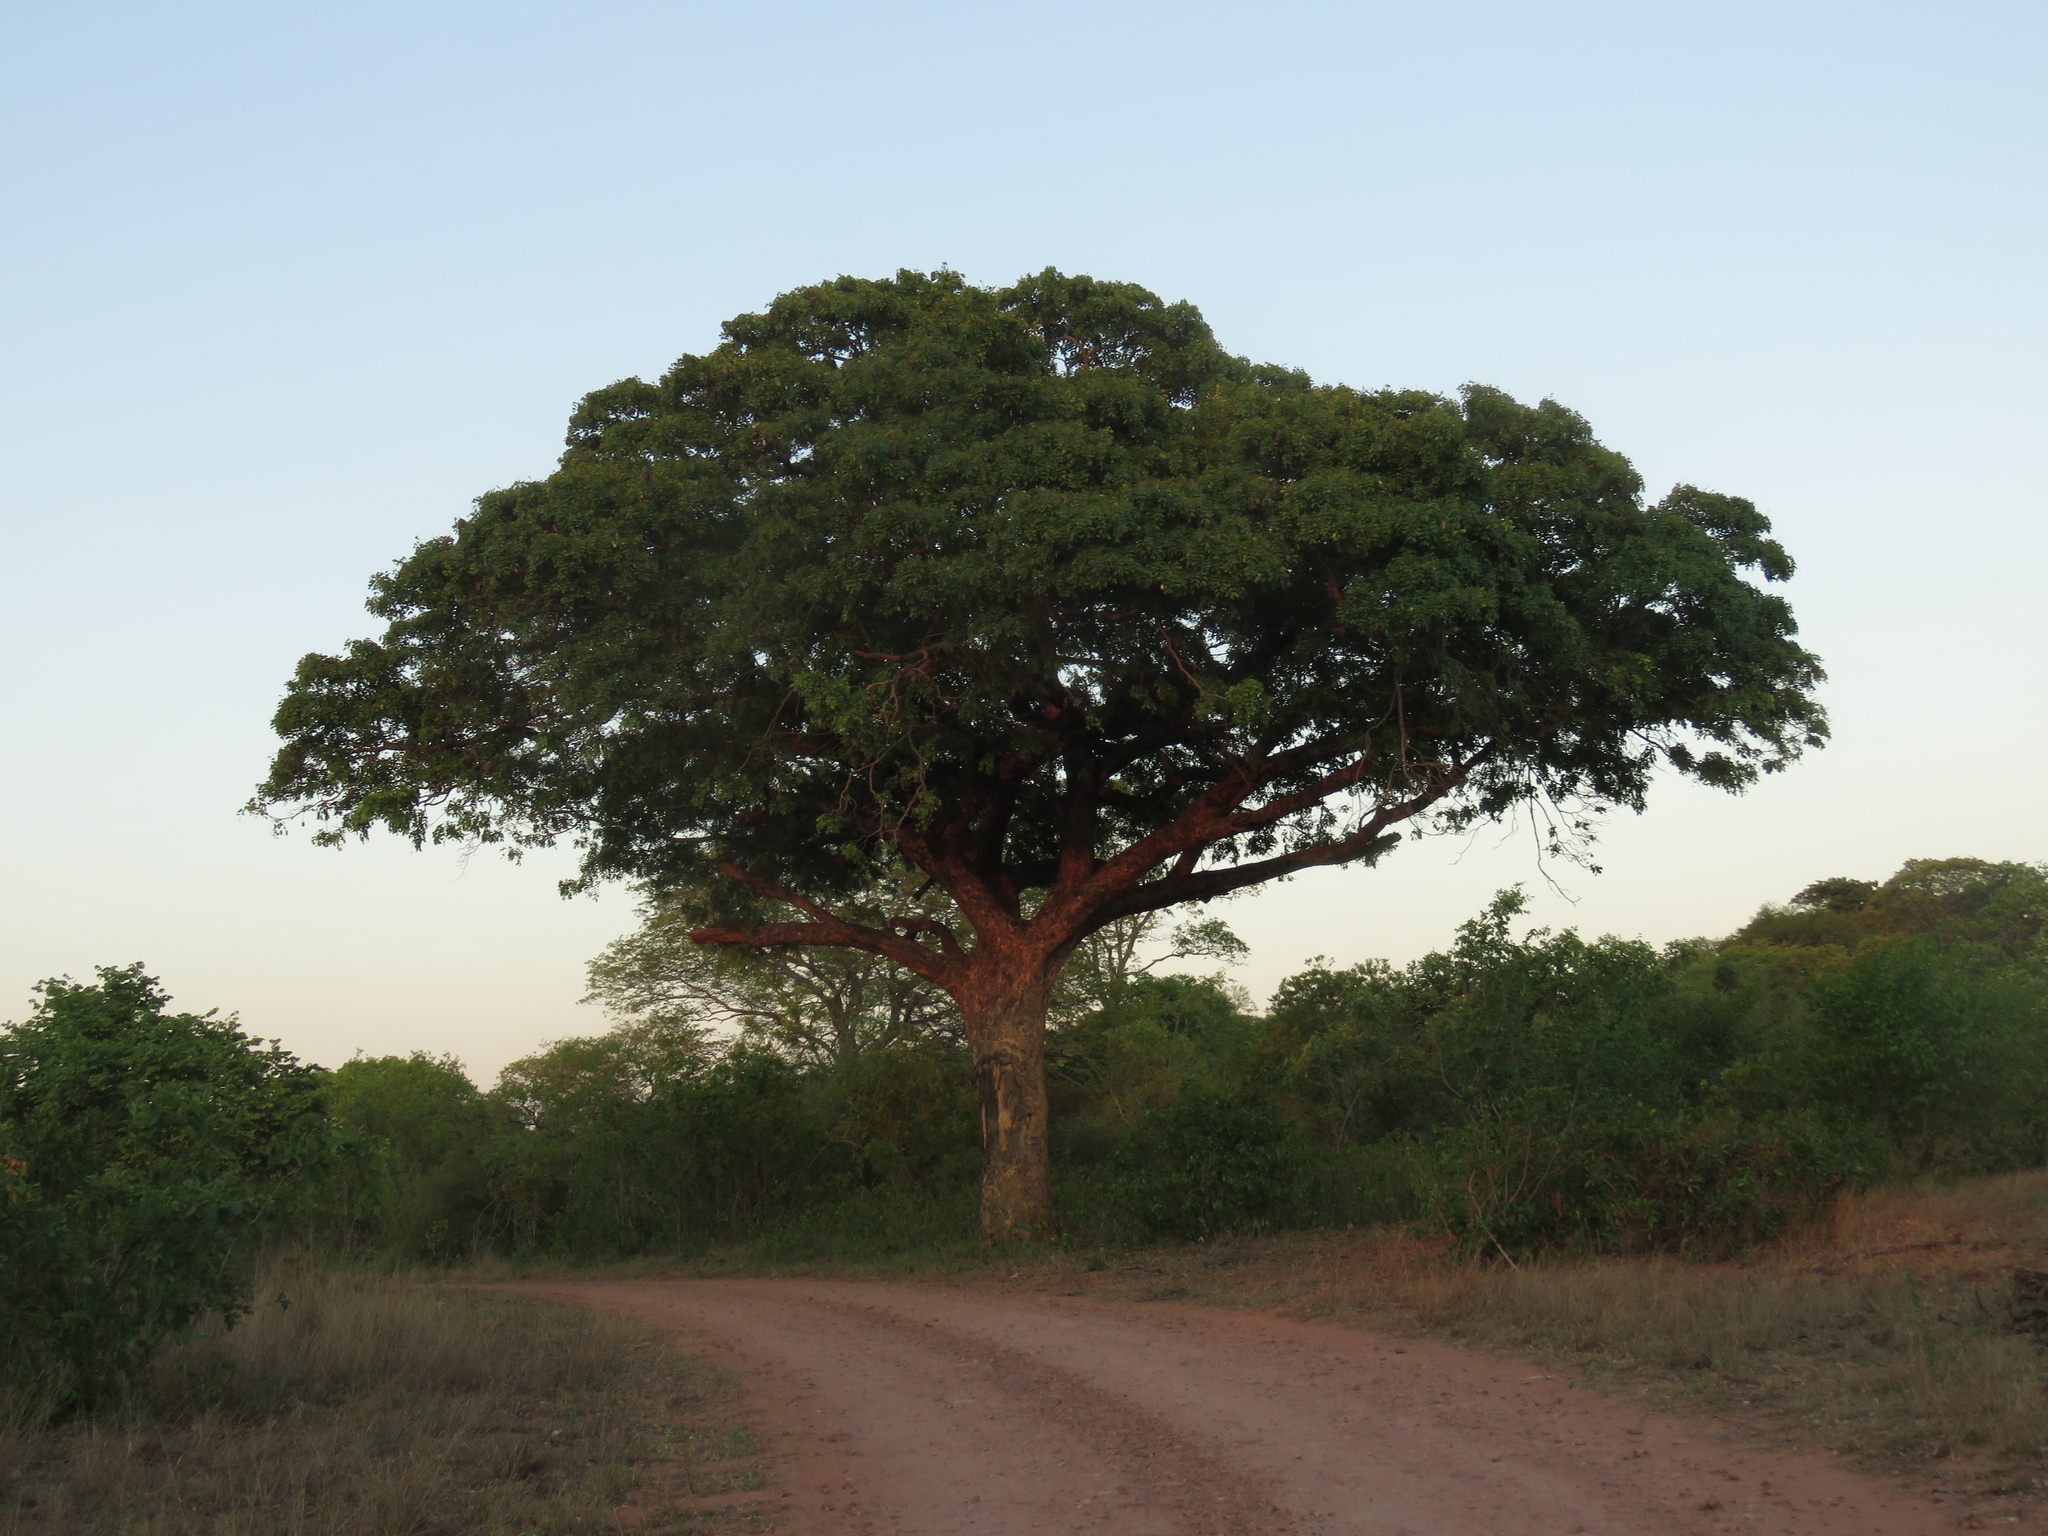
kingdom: Plantae
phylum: Tracheophyta
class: Magnoliopsida
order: Sapindales
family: Anacardiaceae
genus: Sclerocarya
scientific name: Sclerocarya birrea
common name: Marula
